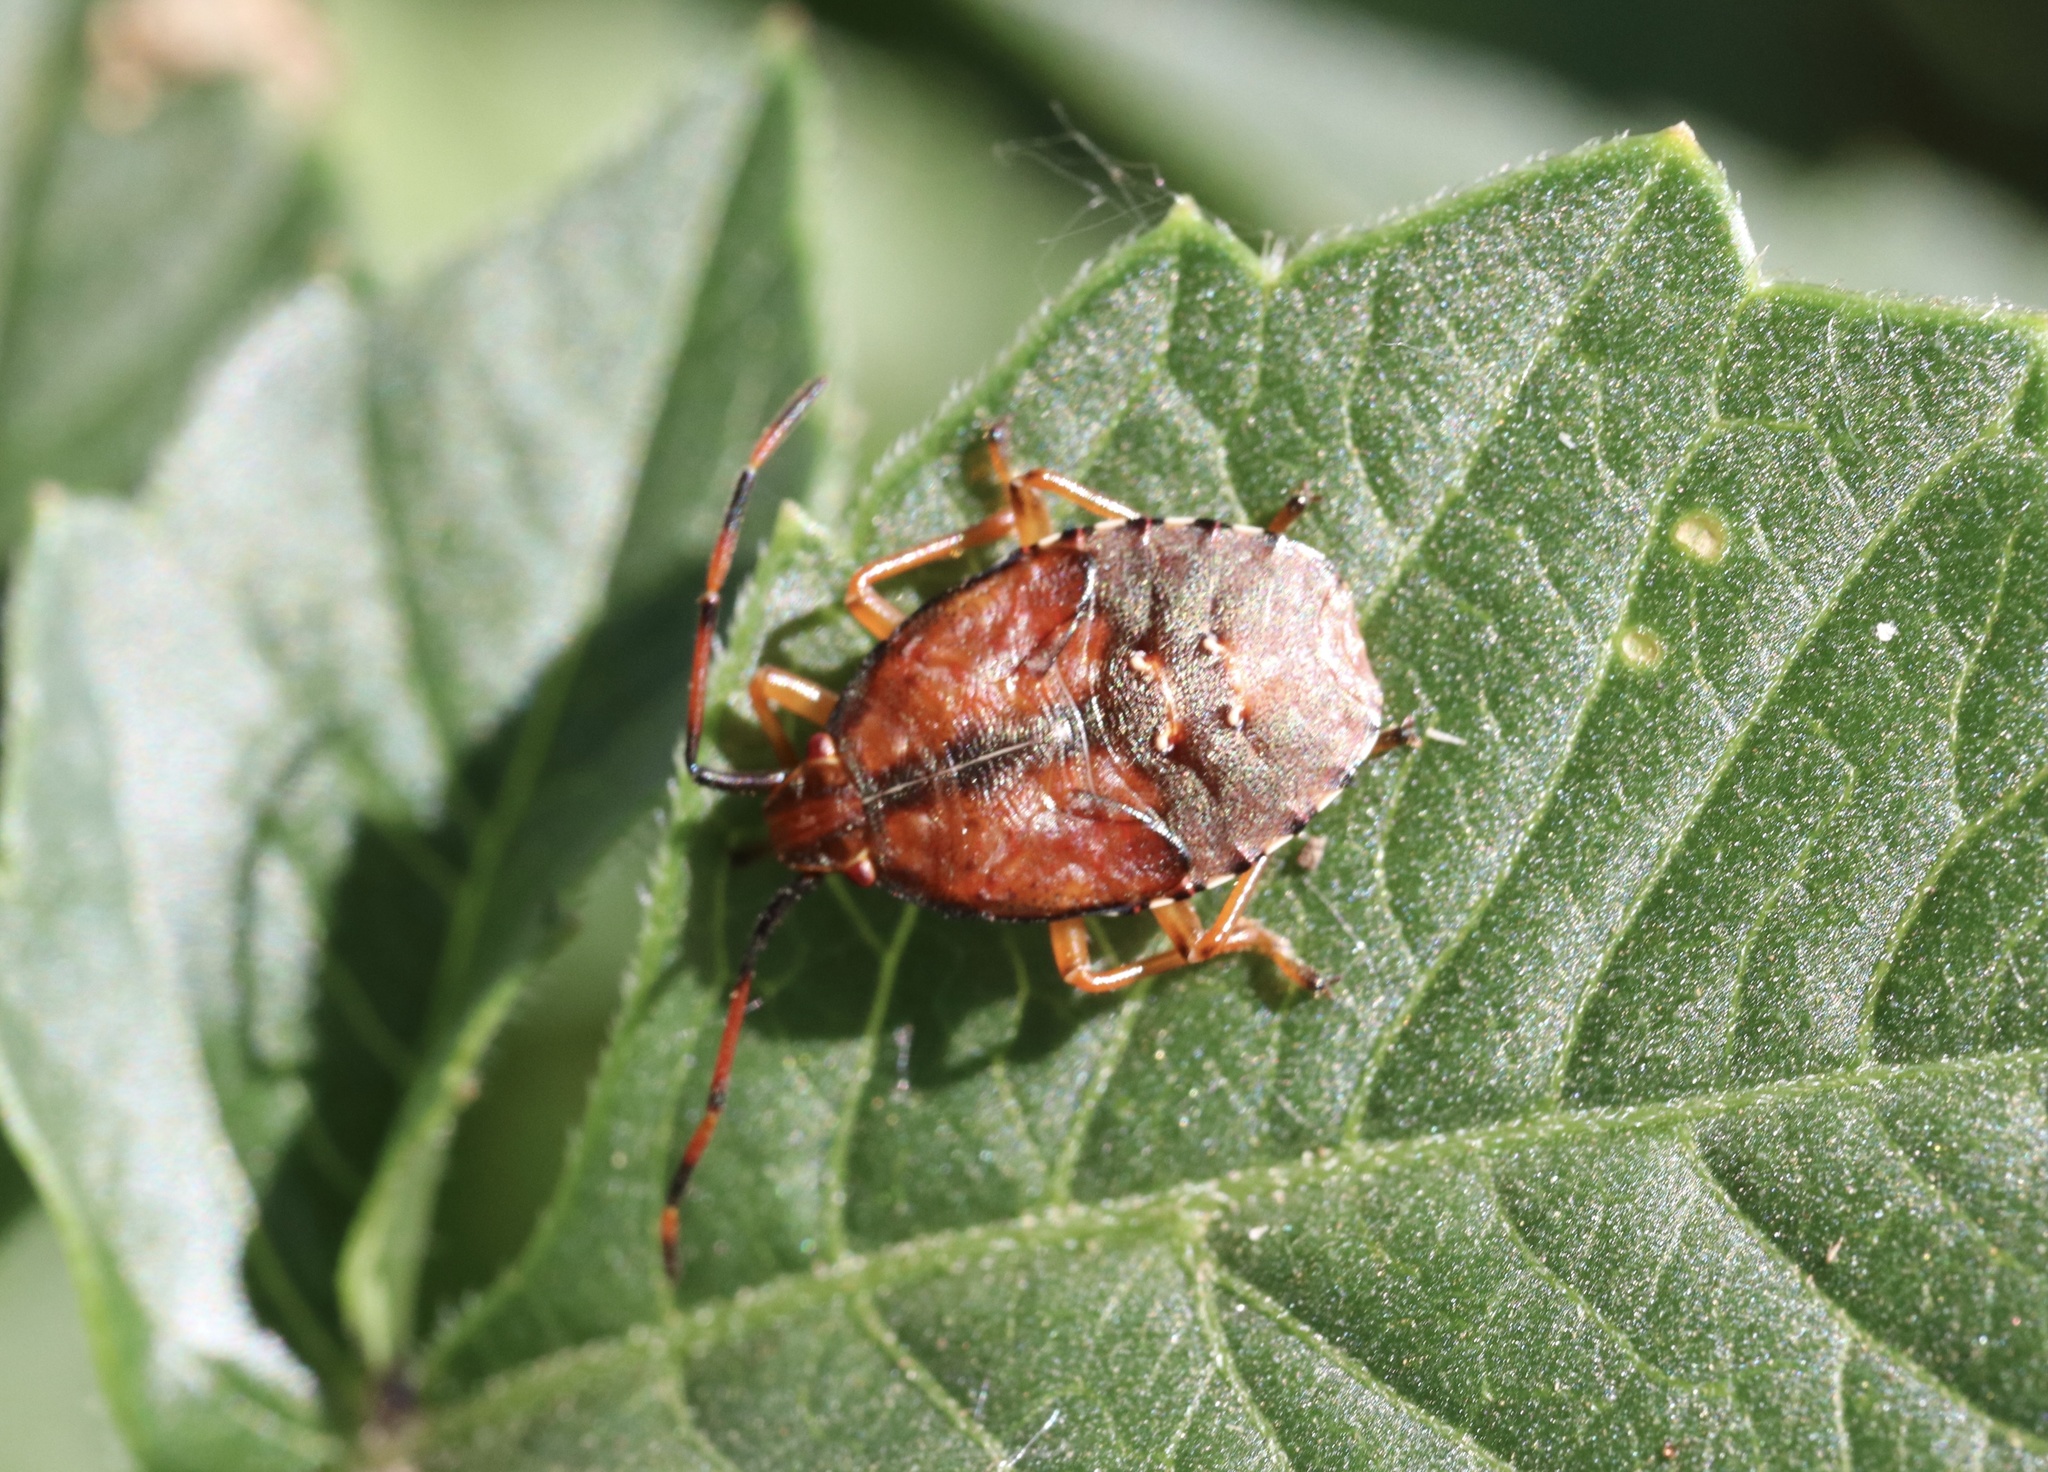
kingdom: Animalia
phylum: Arthropoda
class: Insecta
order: Hemiptera
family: Acanthosomatidae
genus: Planois
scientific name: Planois gayi
